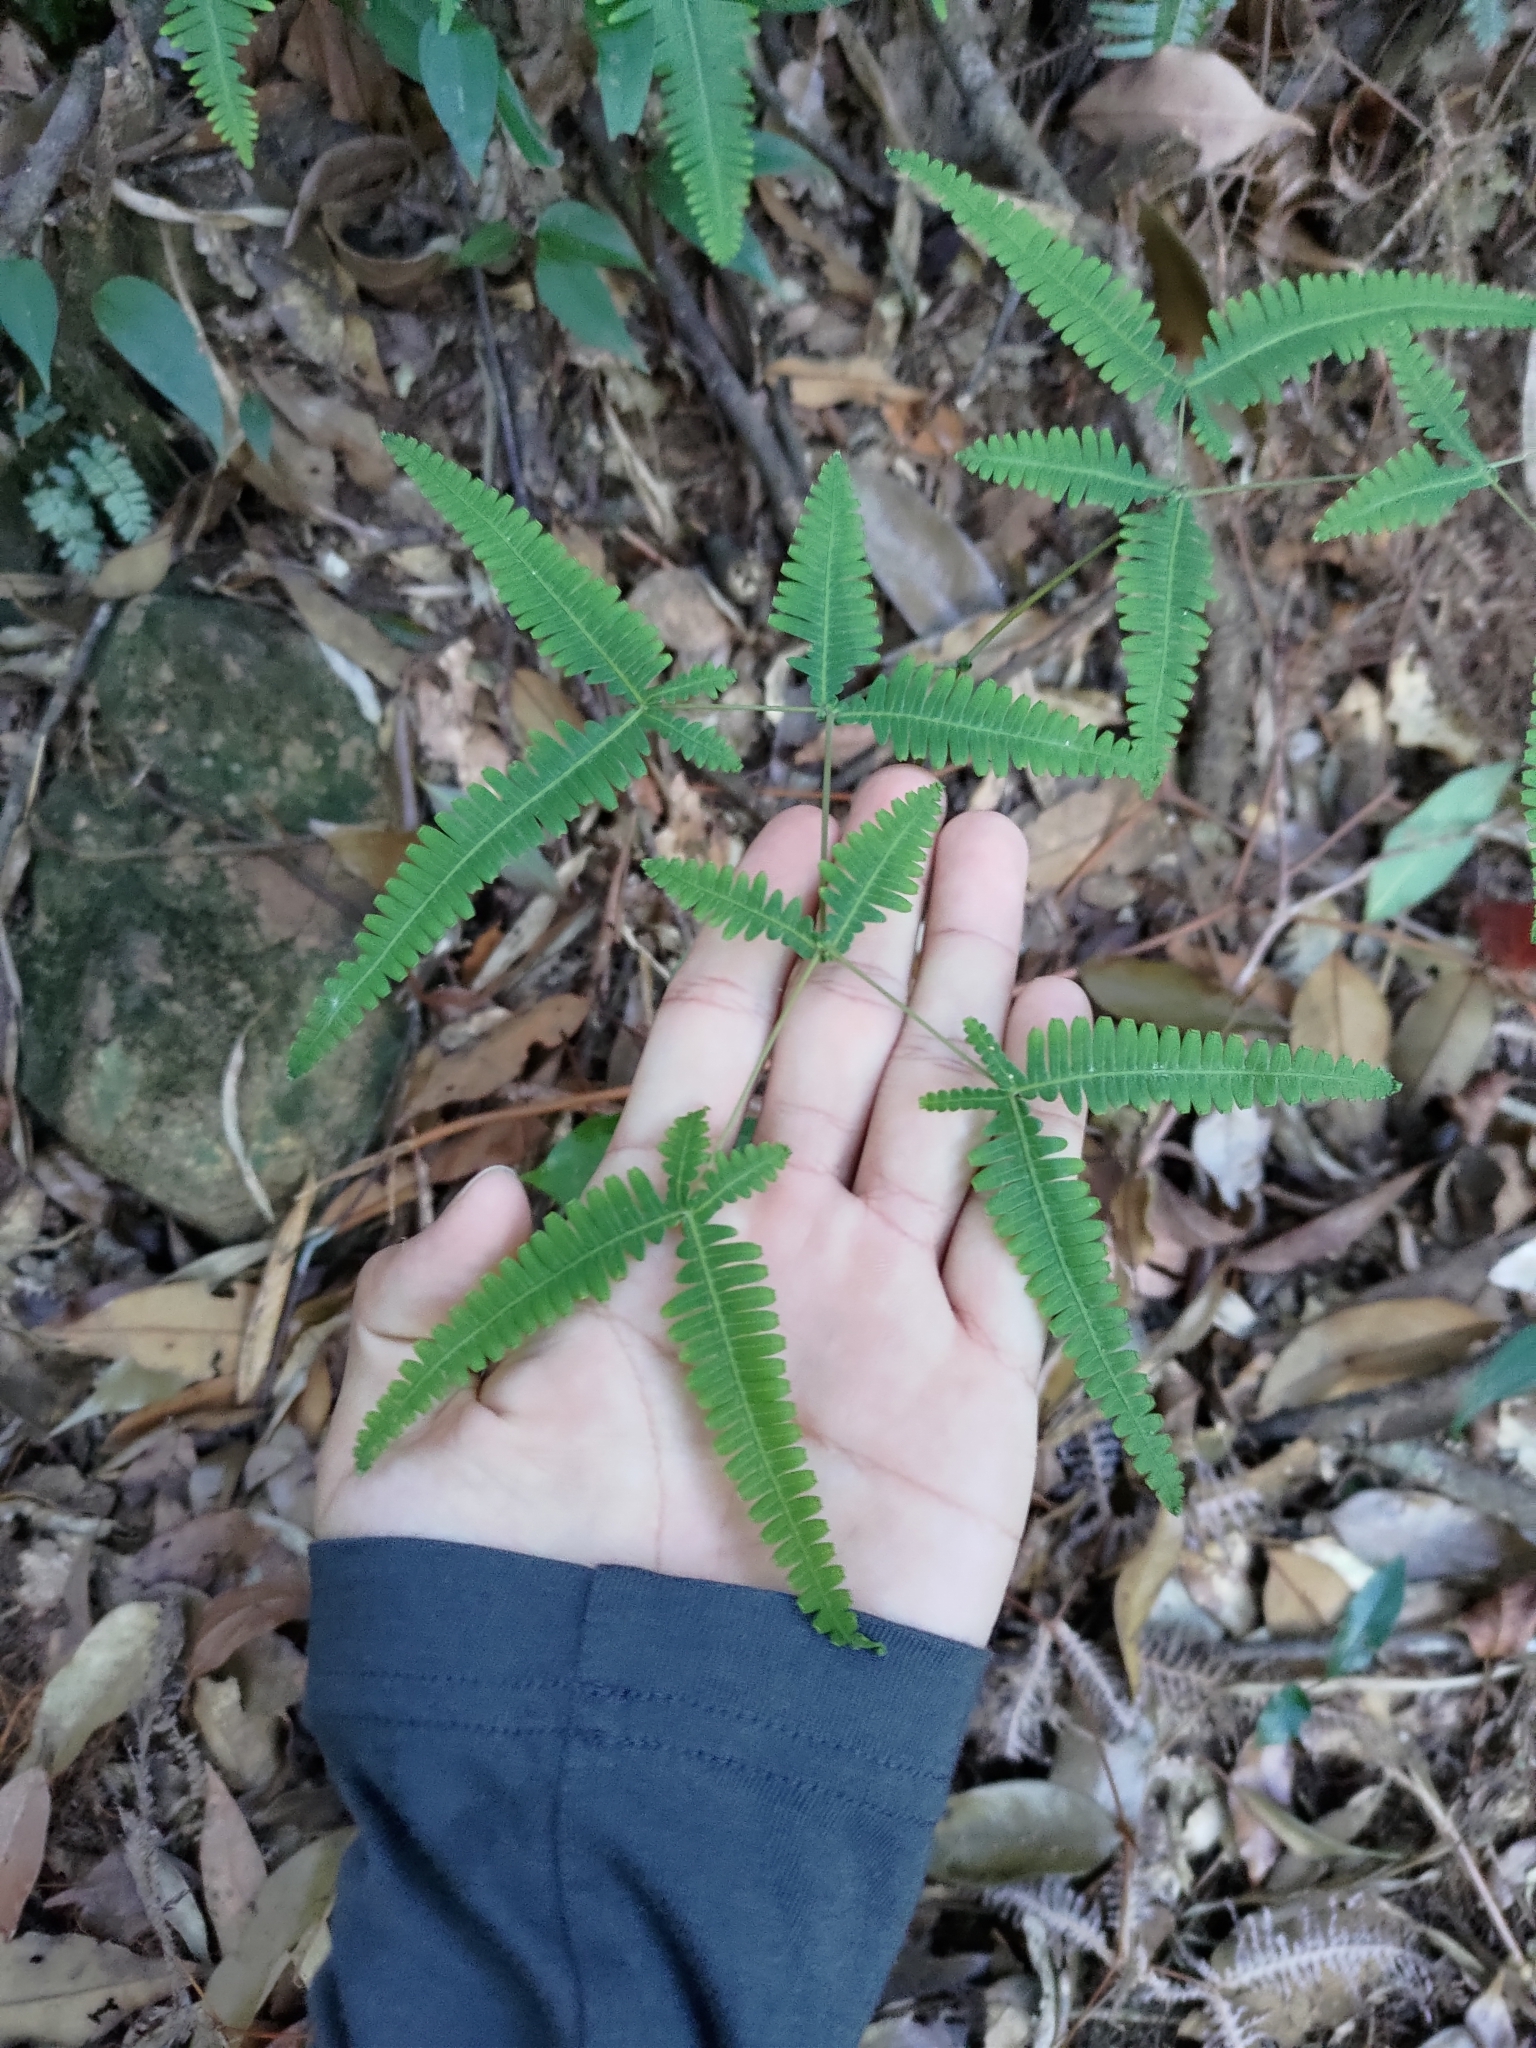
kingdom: Plantae
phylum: Tracheophyta
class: Polypodiopsida
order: Gleicheniales
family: Gleicheniaceae
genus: Dicranopteris
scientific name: Dicranopteris tetraphylla
